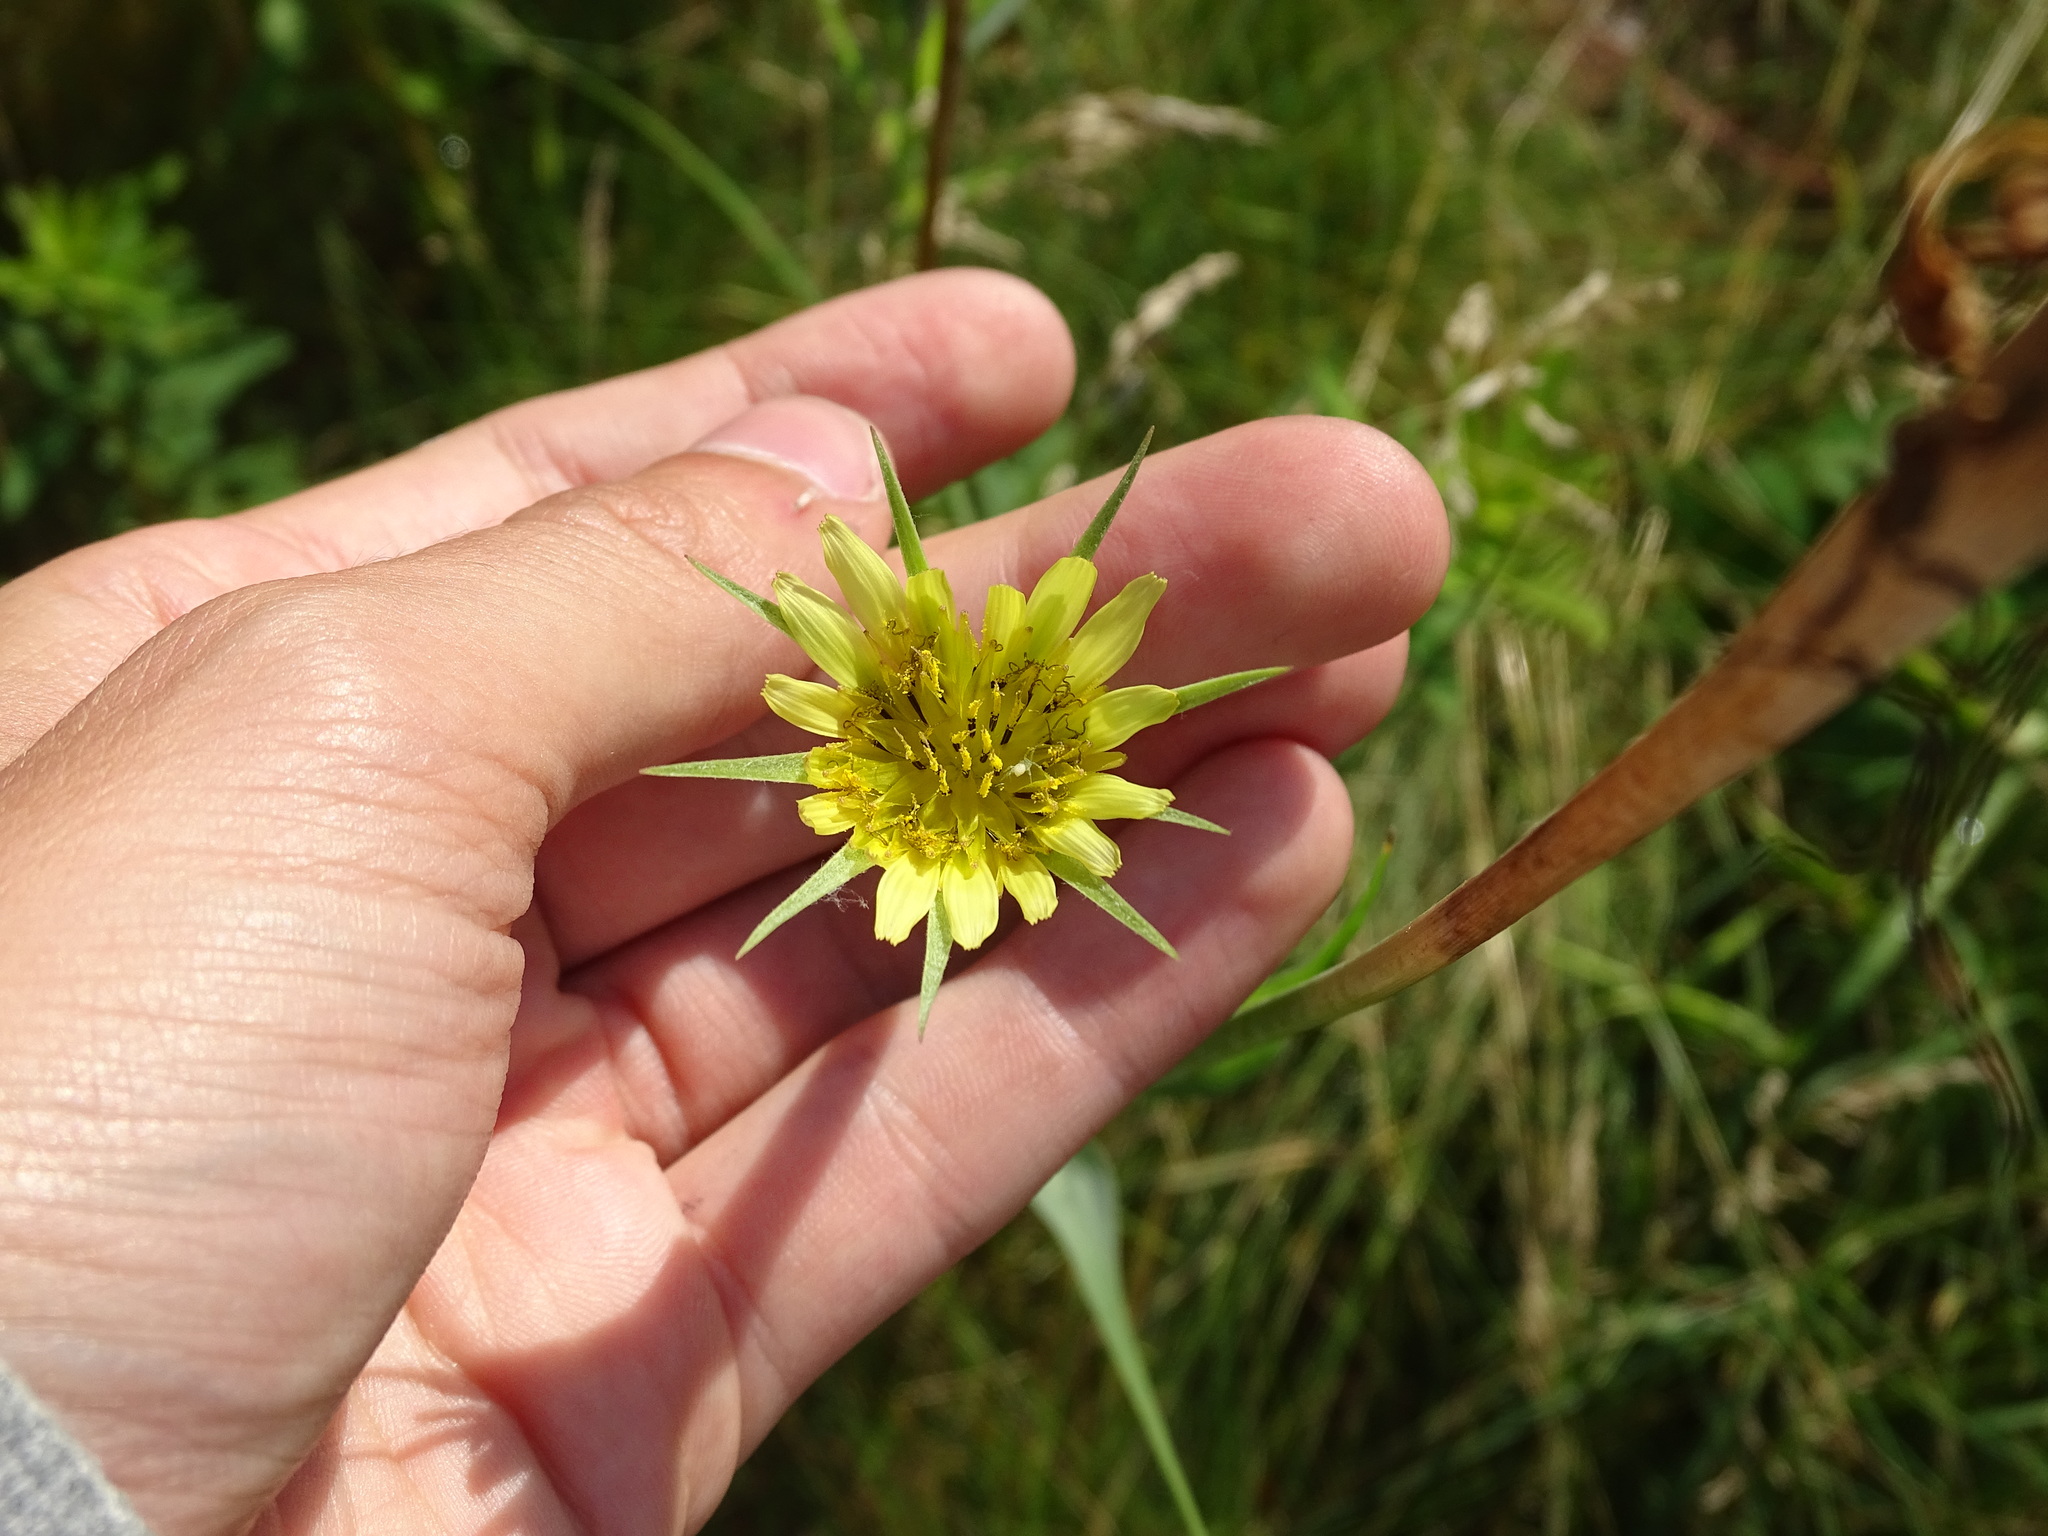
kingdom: Plantae
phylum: Tracheophyta
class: Magnoliopsida
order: Asterales
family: Asteraceae
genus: Tragopogon
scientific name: Tragopogon dubius
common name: Yellow salsify
